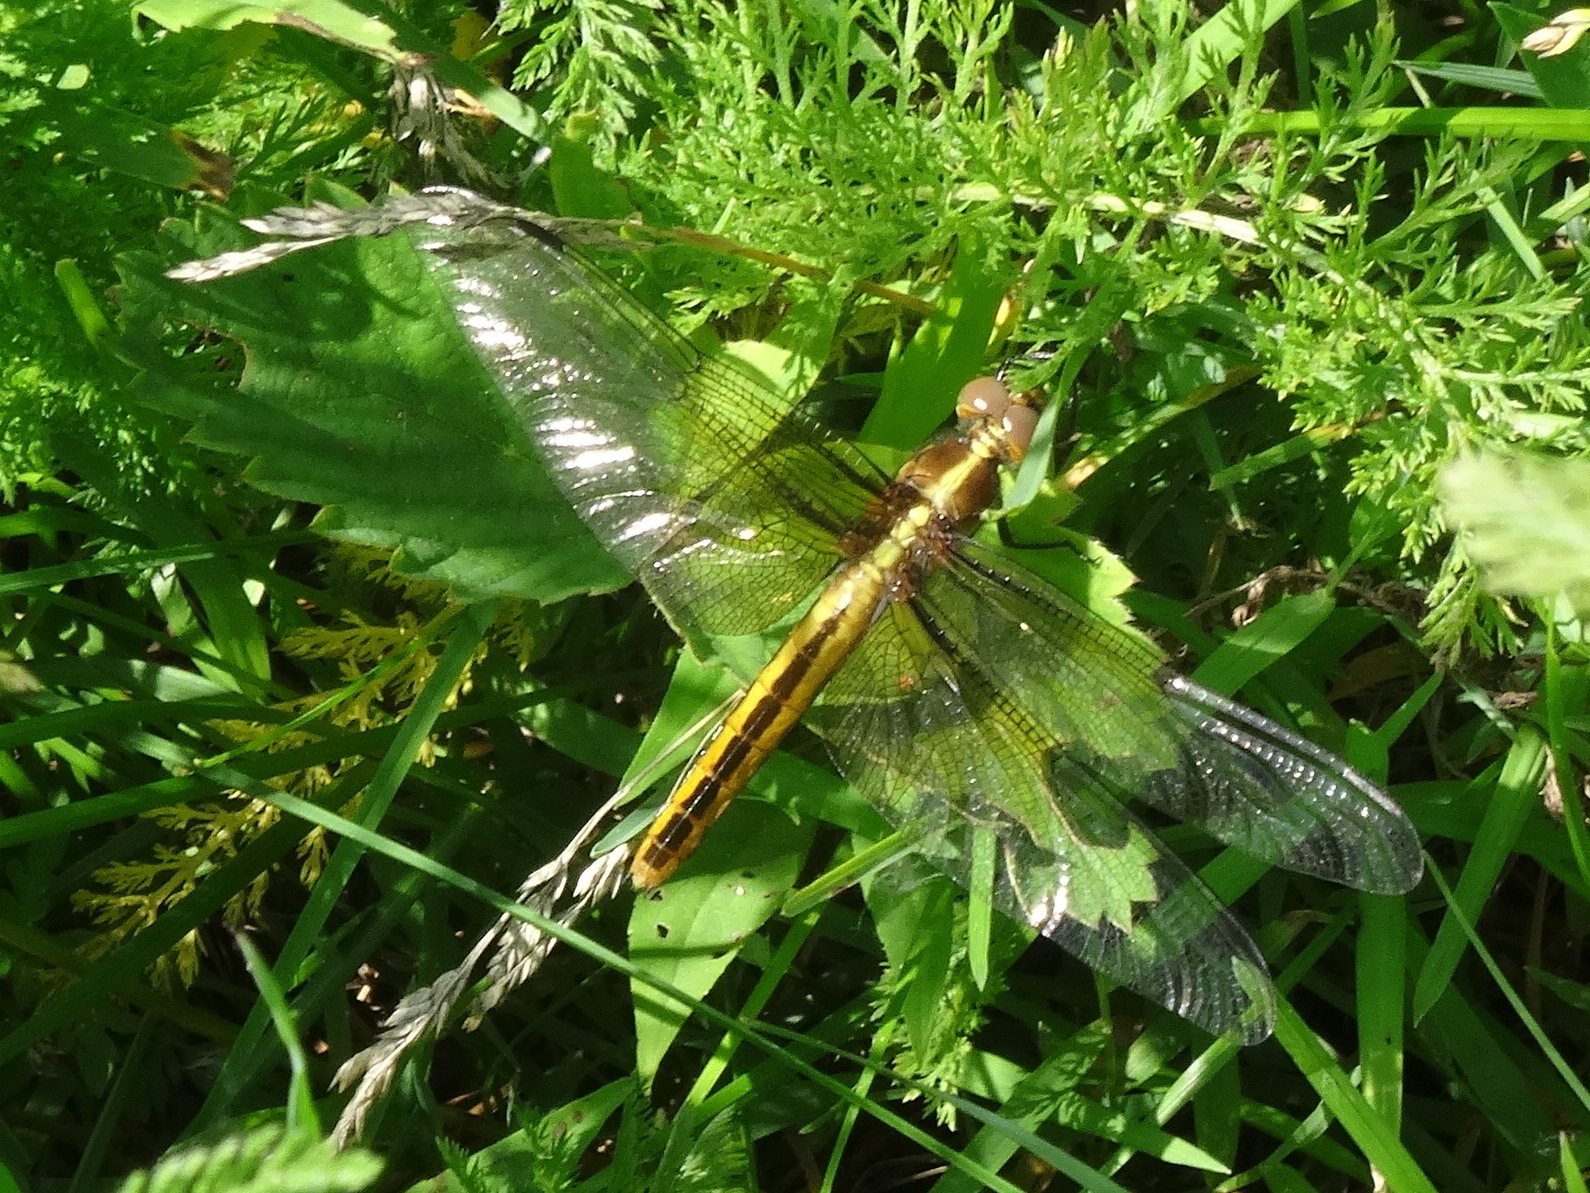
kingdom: Animalia
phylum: Arthropoda
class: Insecta
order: Odonata
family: Libellulidae
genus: Libellula
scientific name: Libellula luctuosa
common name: Widow skimmer
